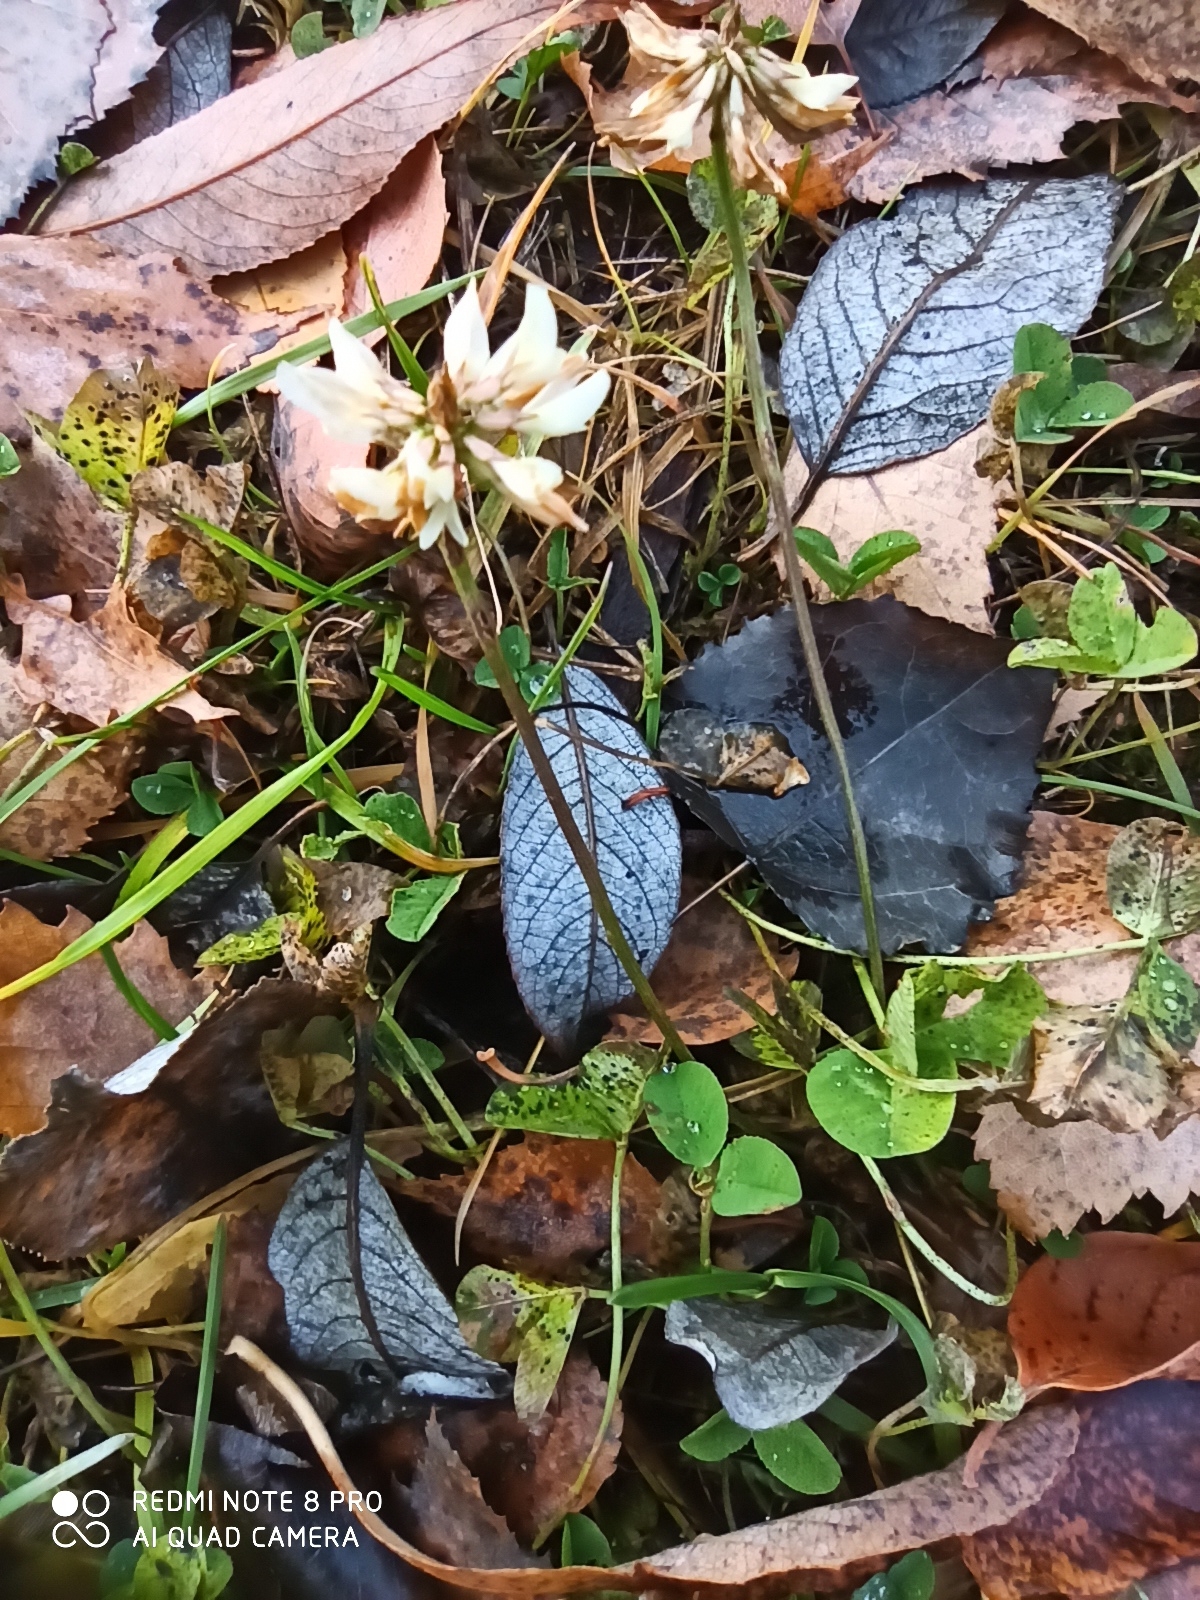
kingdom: Plantae
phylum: Tracheophyta
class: Magnoliopsida
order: Fabales
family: Fabaceae
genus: Trifolium
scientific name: Trifolium repens
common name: White clover
